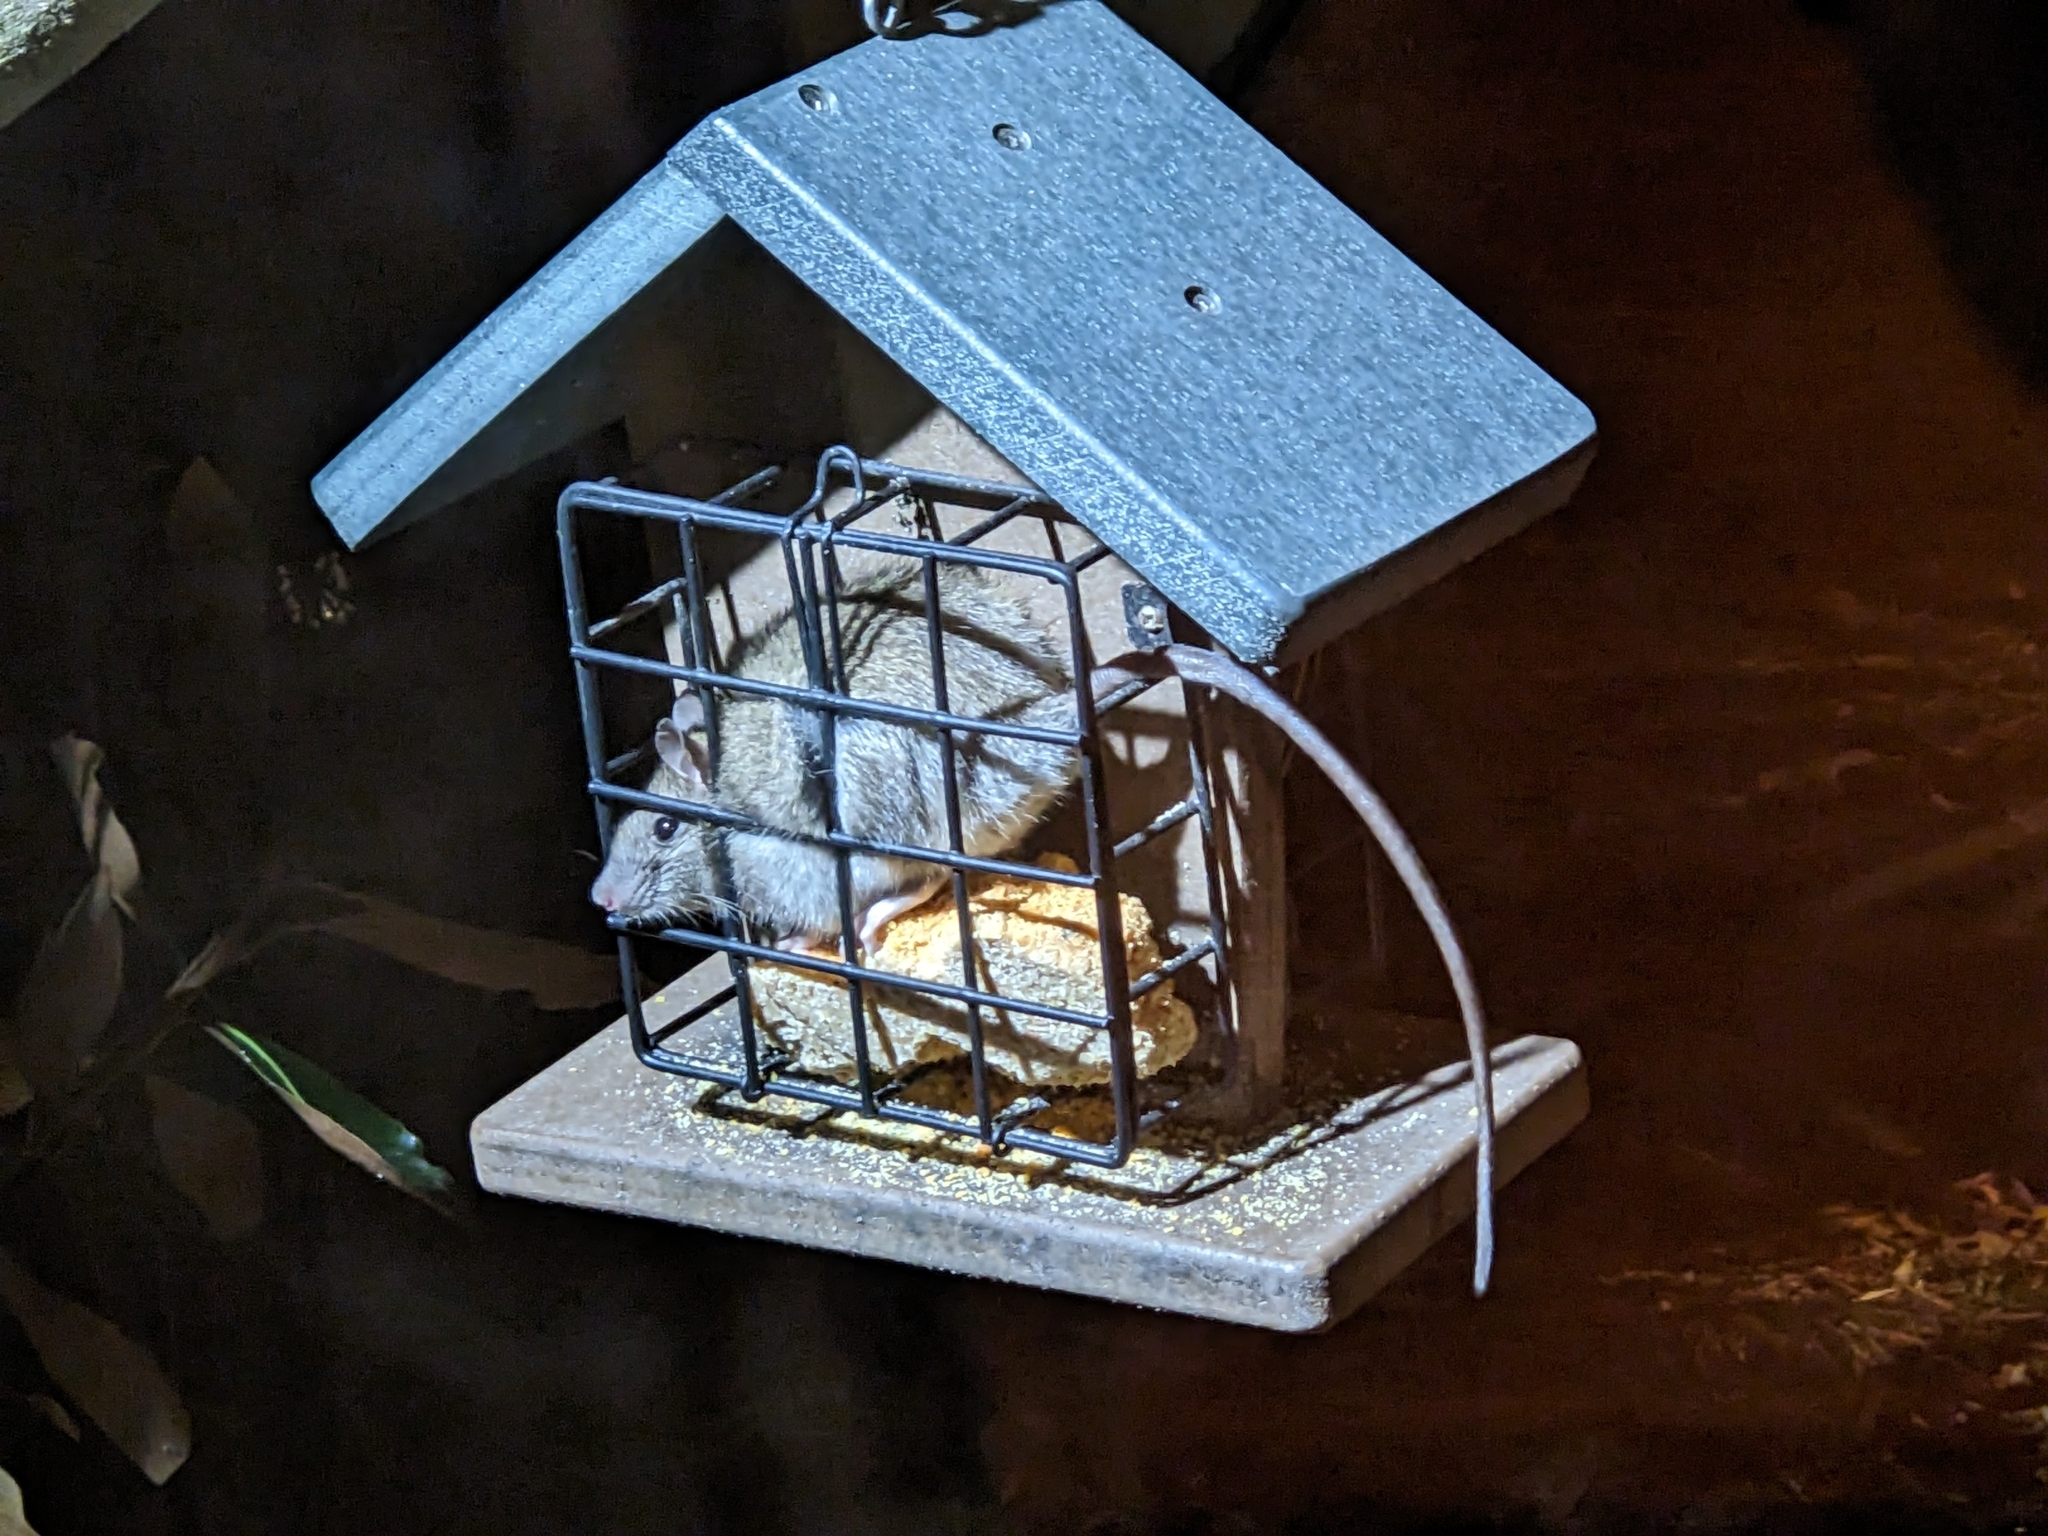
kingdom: Animalia
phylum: Chordata
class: Mammalia
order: Rodentia
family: Muridae
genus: Rattus
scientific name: Rattus rattus
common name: Black rat
